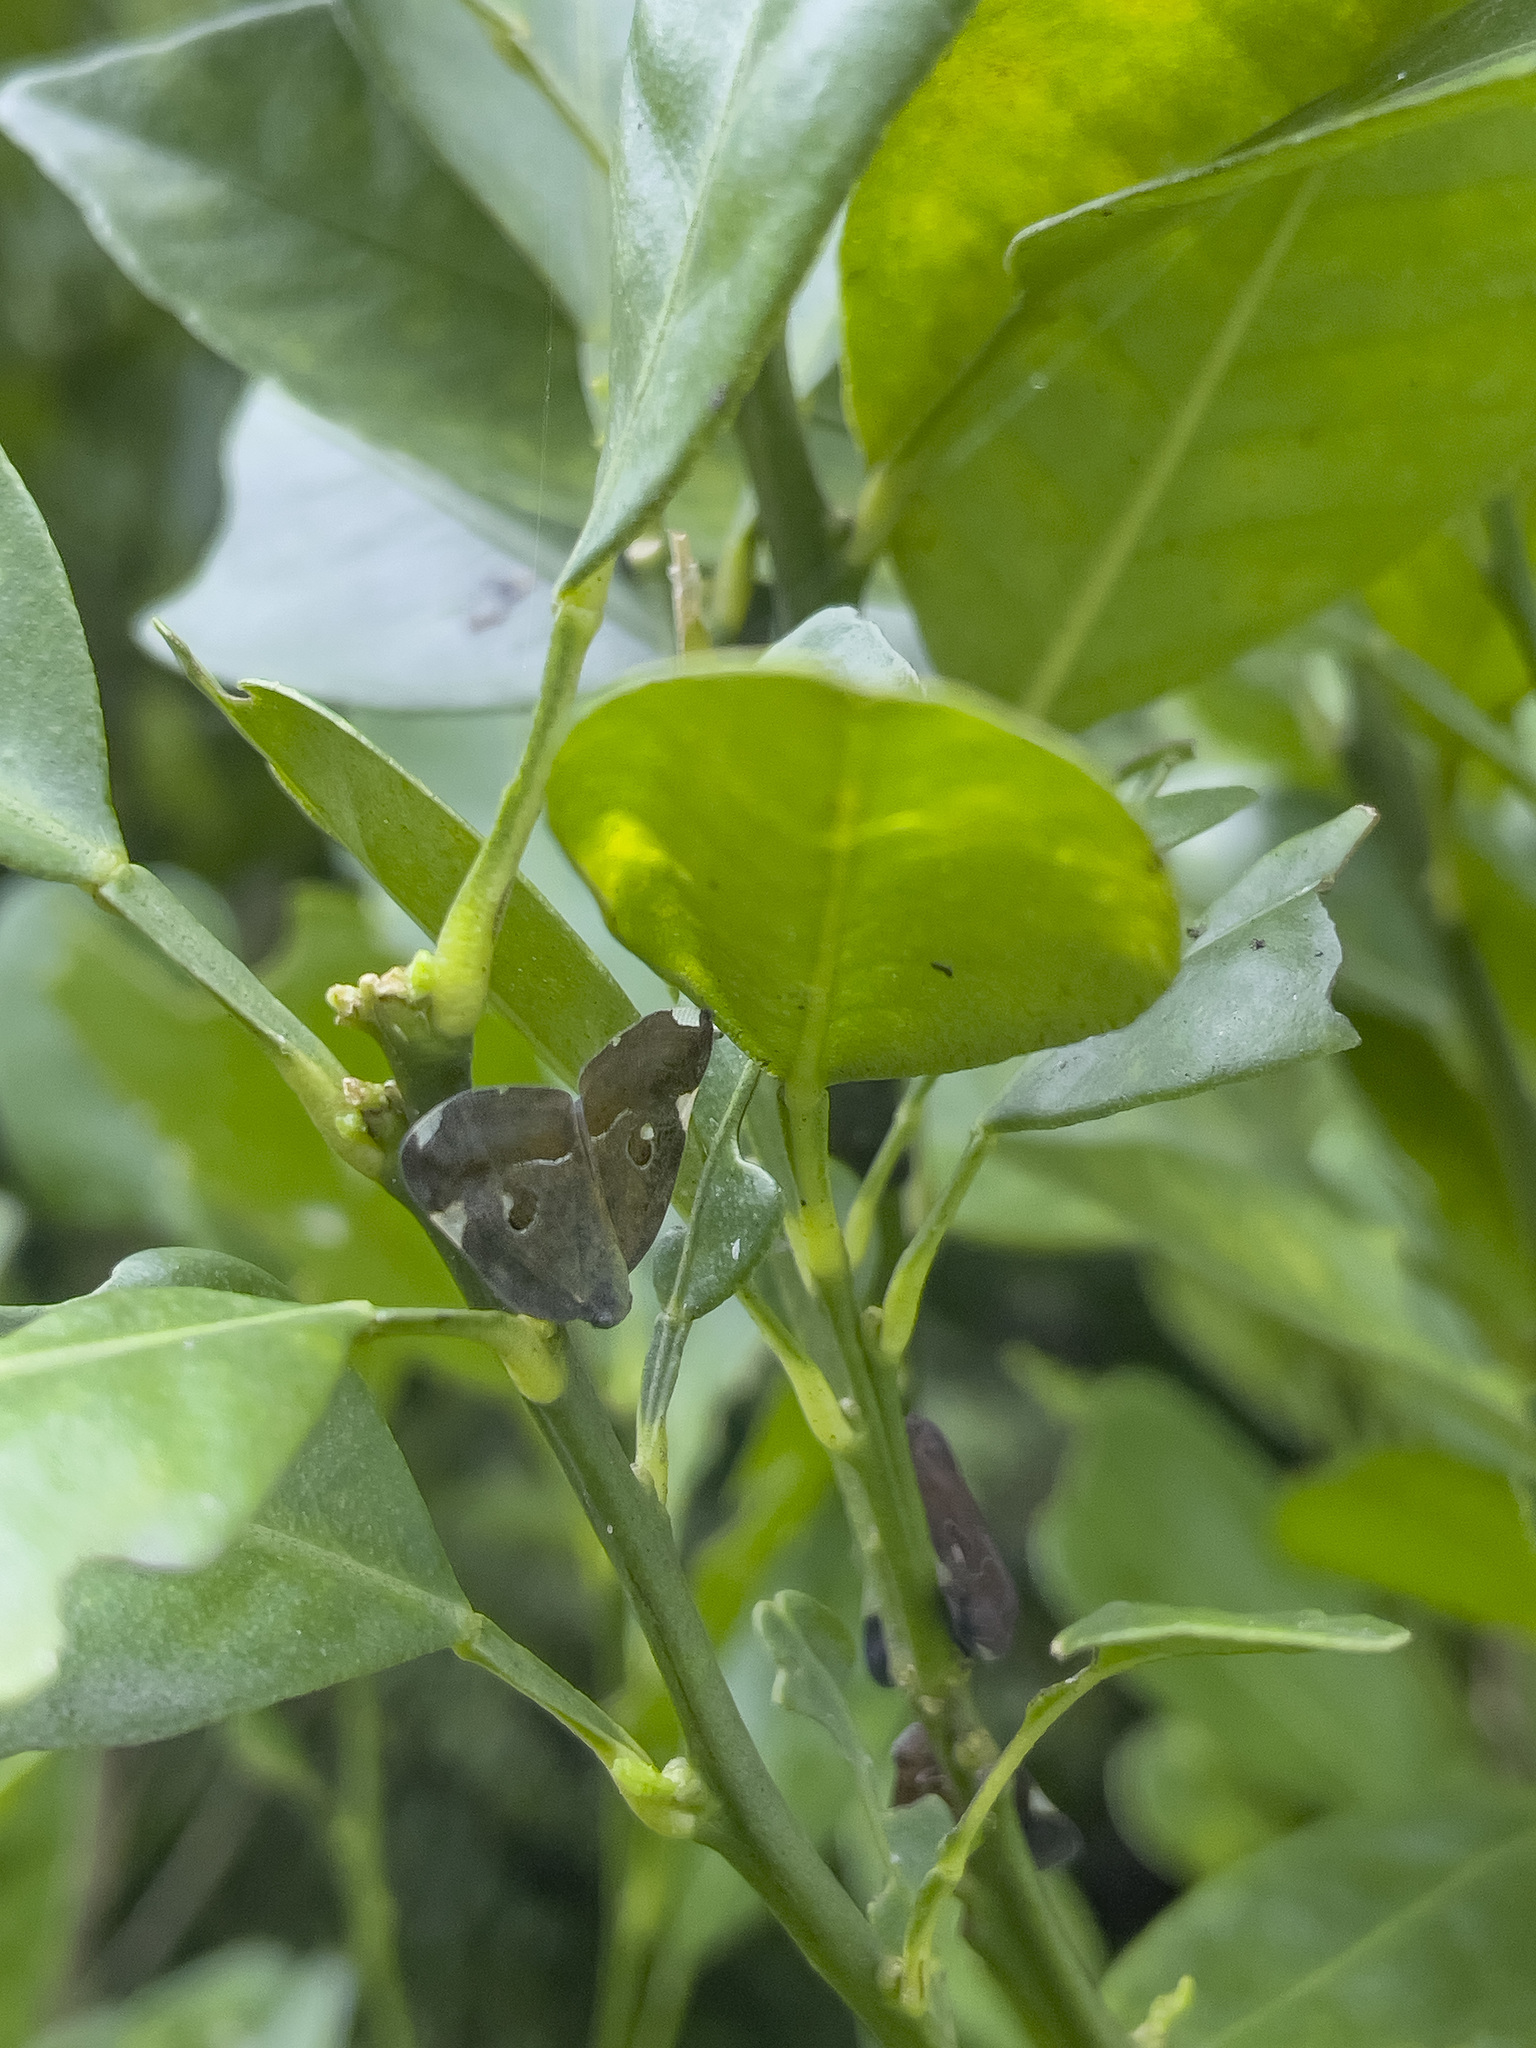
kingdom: Animalia
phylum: Arthropoda
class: Insecta
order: Hemiptera
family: Ricaniidae
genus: Ricania
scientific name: Ricania guttata
